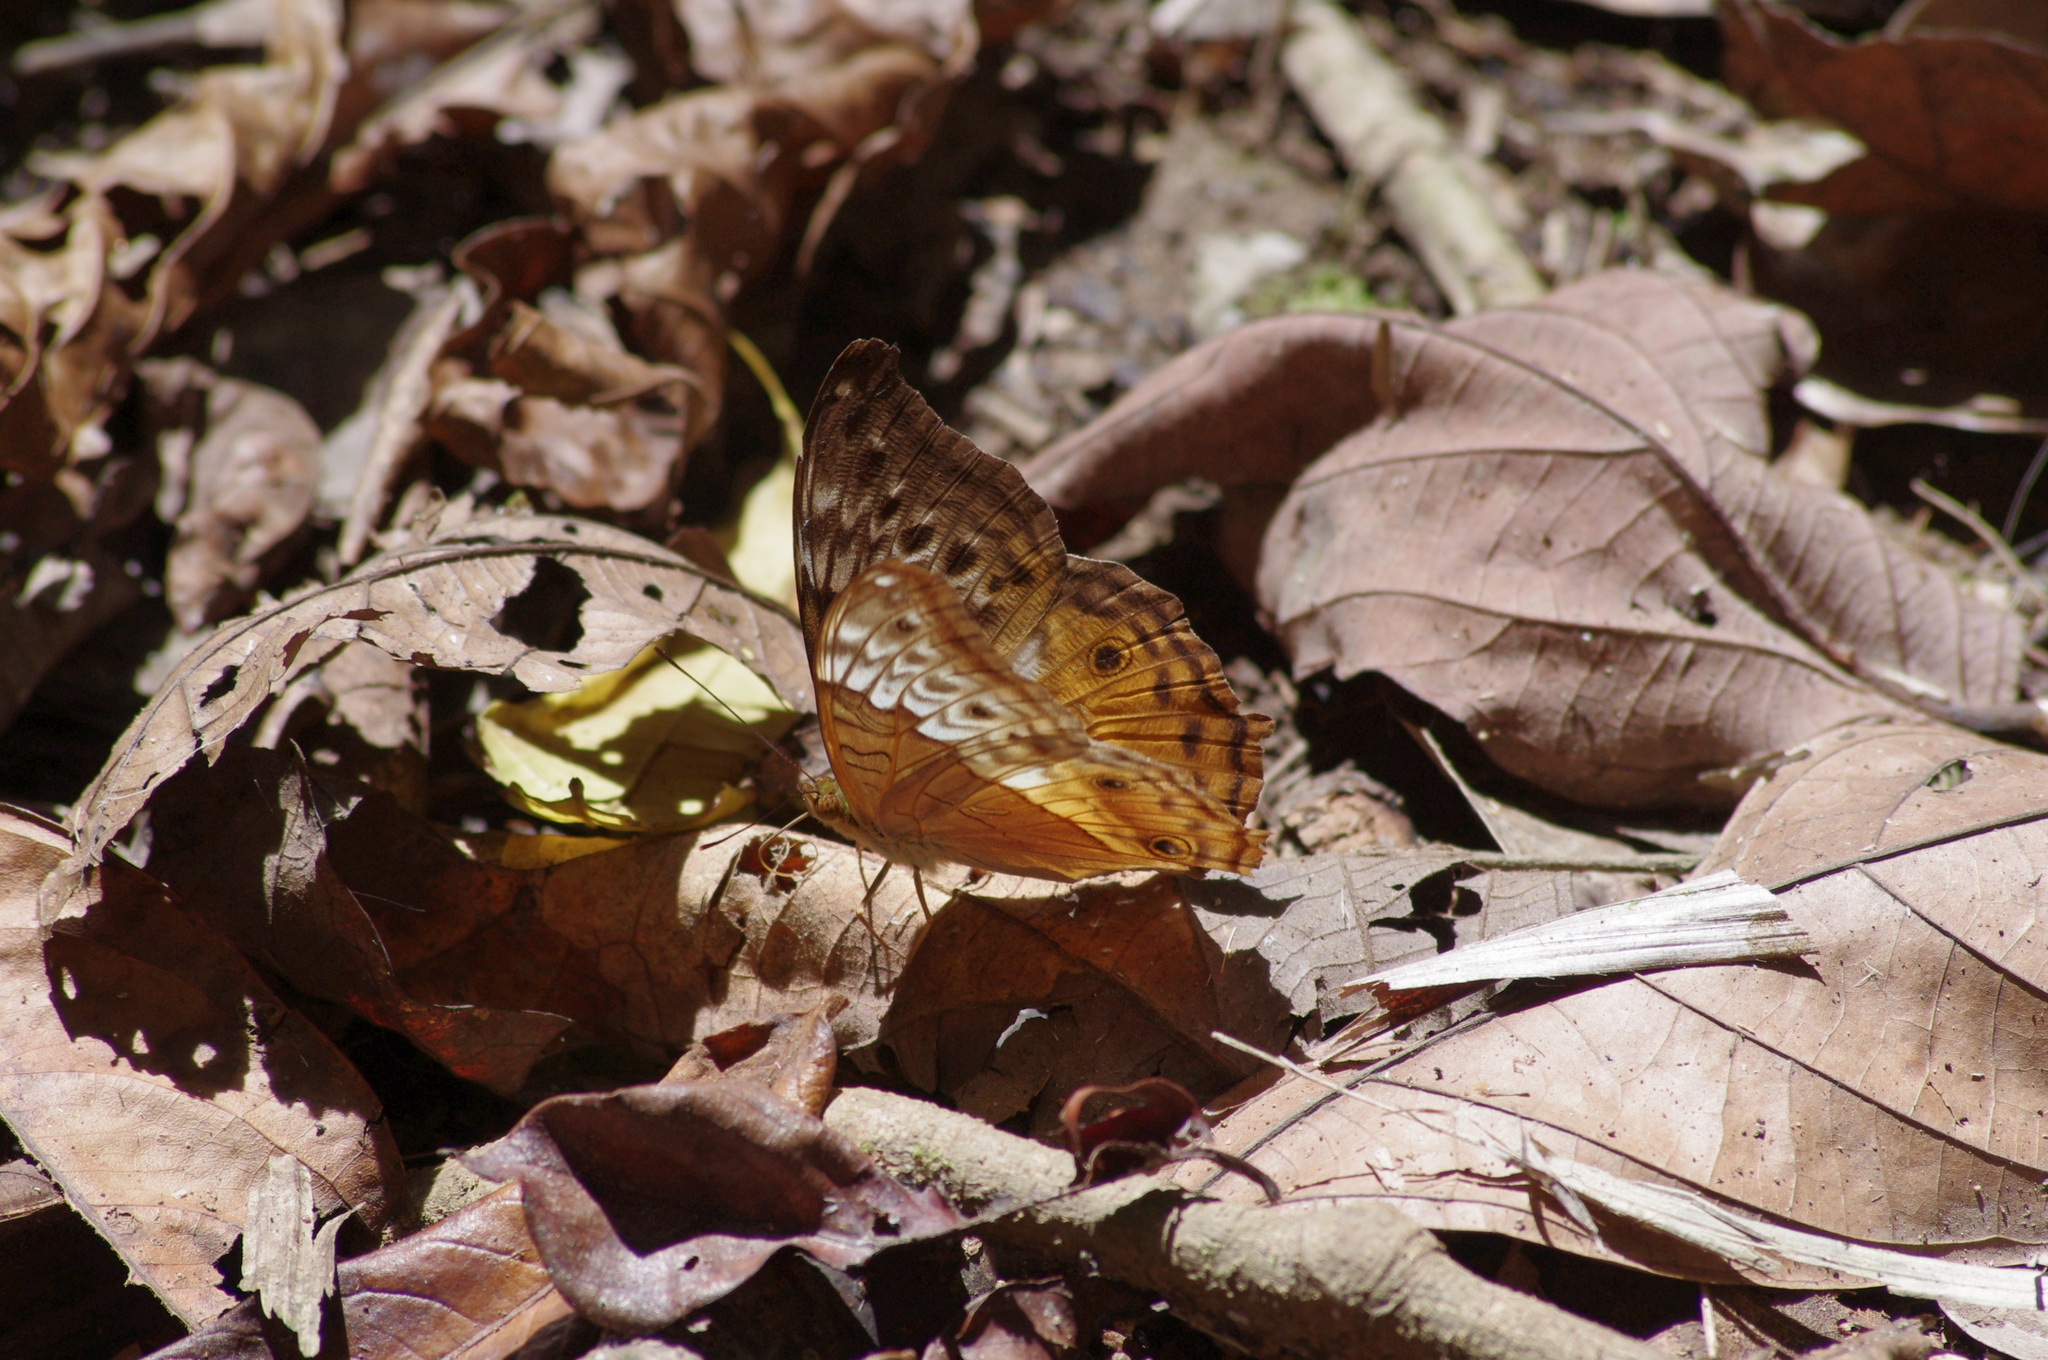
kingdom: Animalia
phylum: Arthropoda
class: Insecta
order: Lepidoptera
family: Nymphalidae
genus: Vindula
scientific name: Vindula arsinoe
